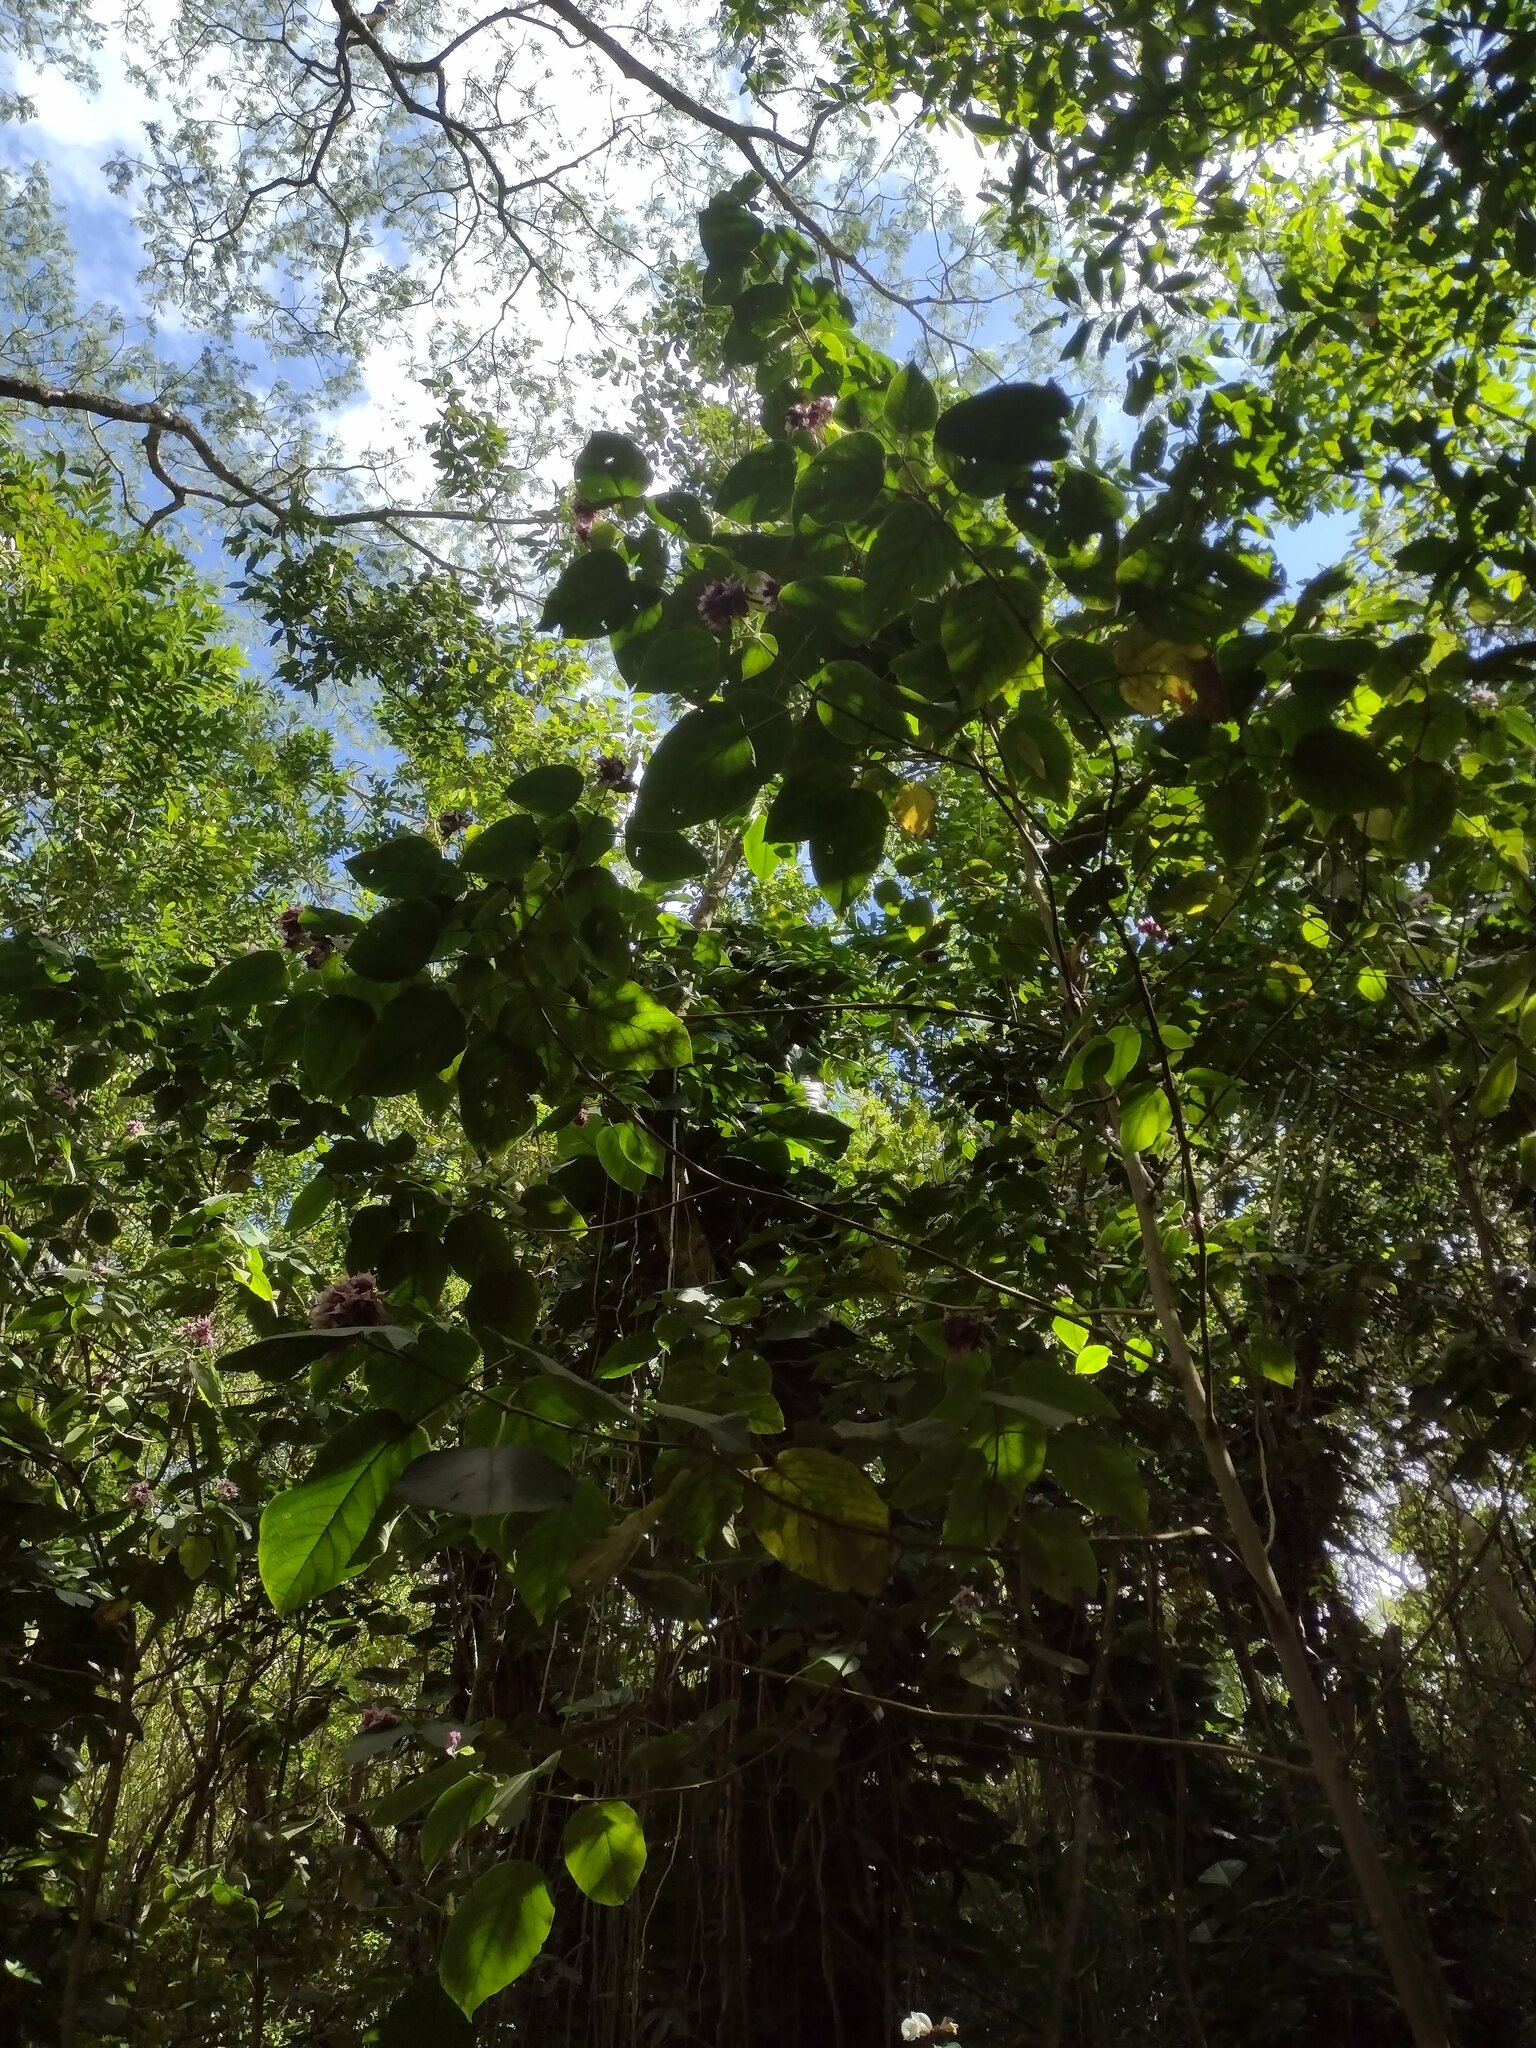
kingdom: Plantae
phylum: Tracheophyta
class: Magnoliopsida
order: Lamiales
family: Lamiaceae
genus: Clerodendrum
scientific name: Clerodendrum macrostegium
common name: Velvetleaf glorybower
